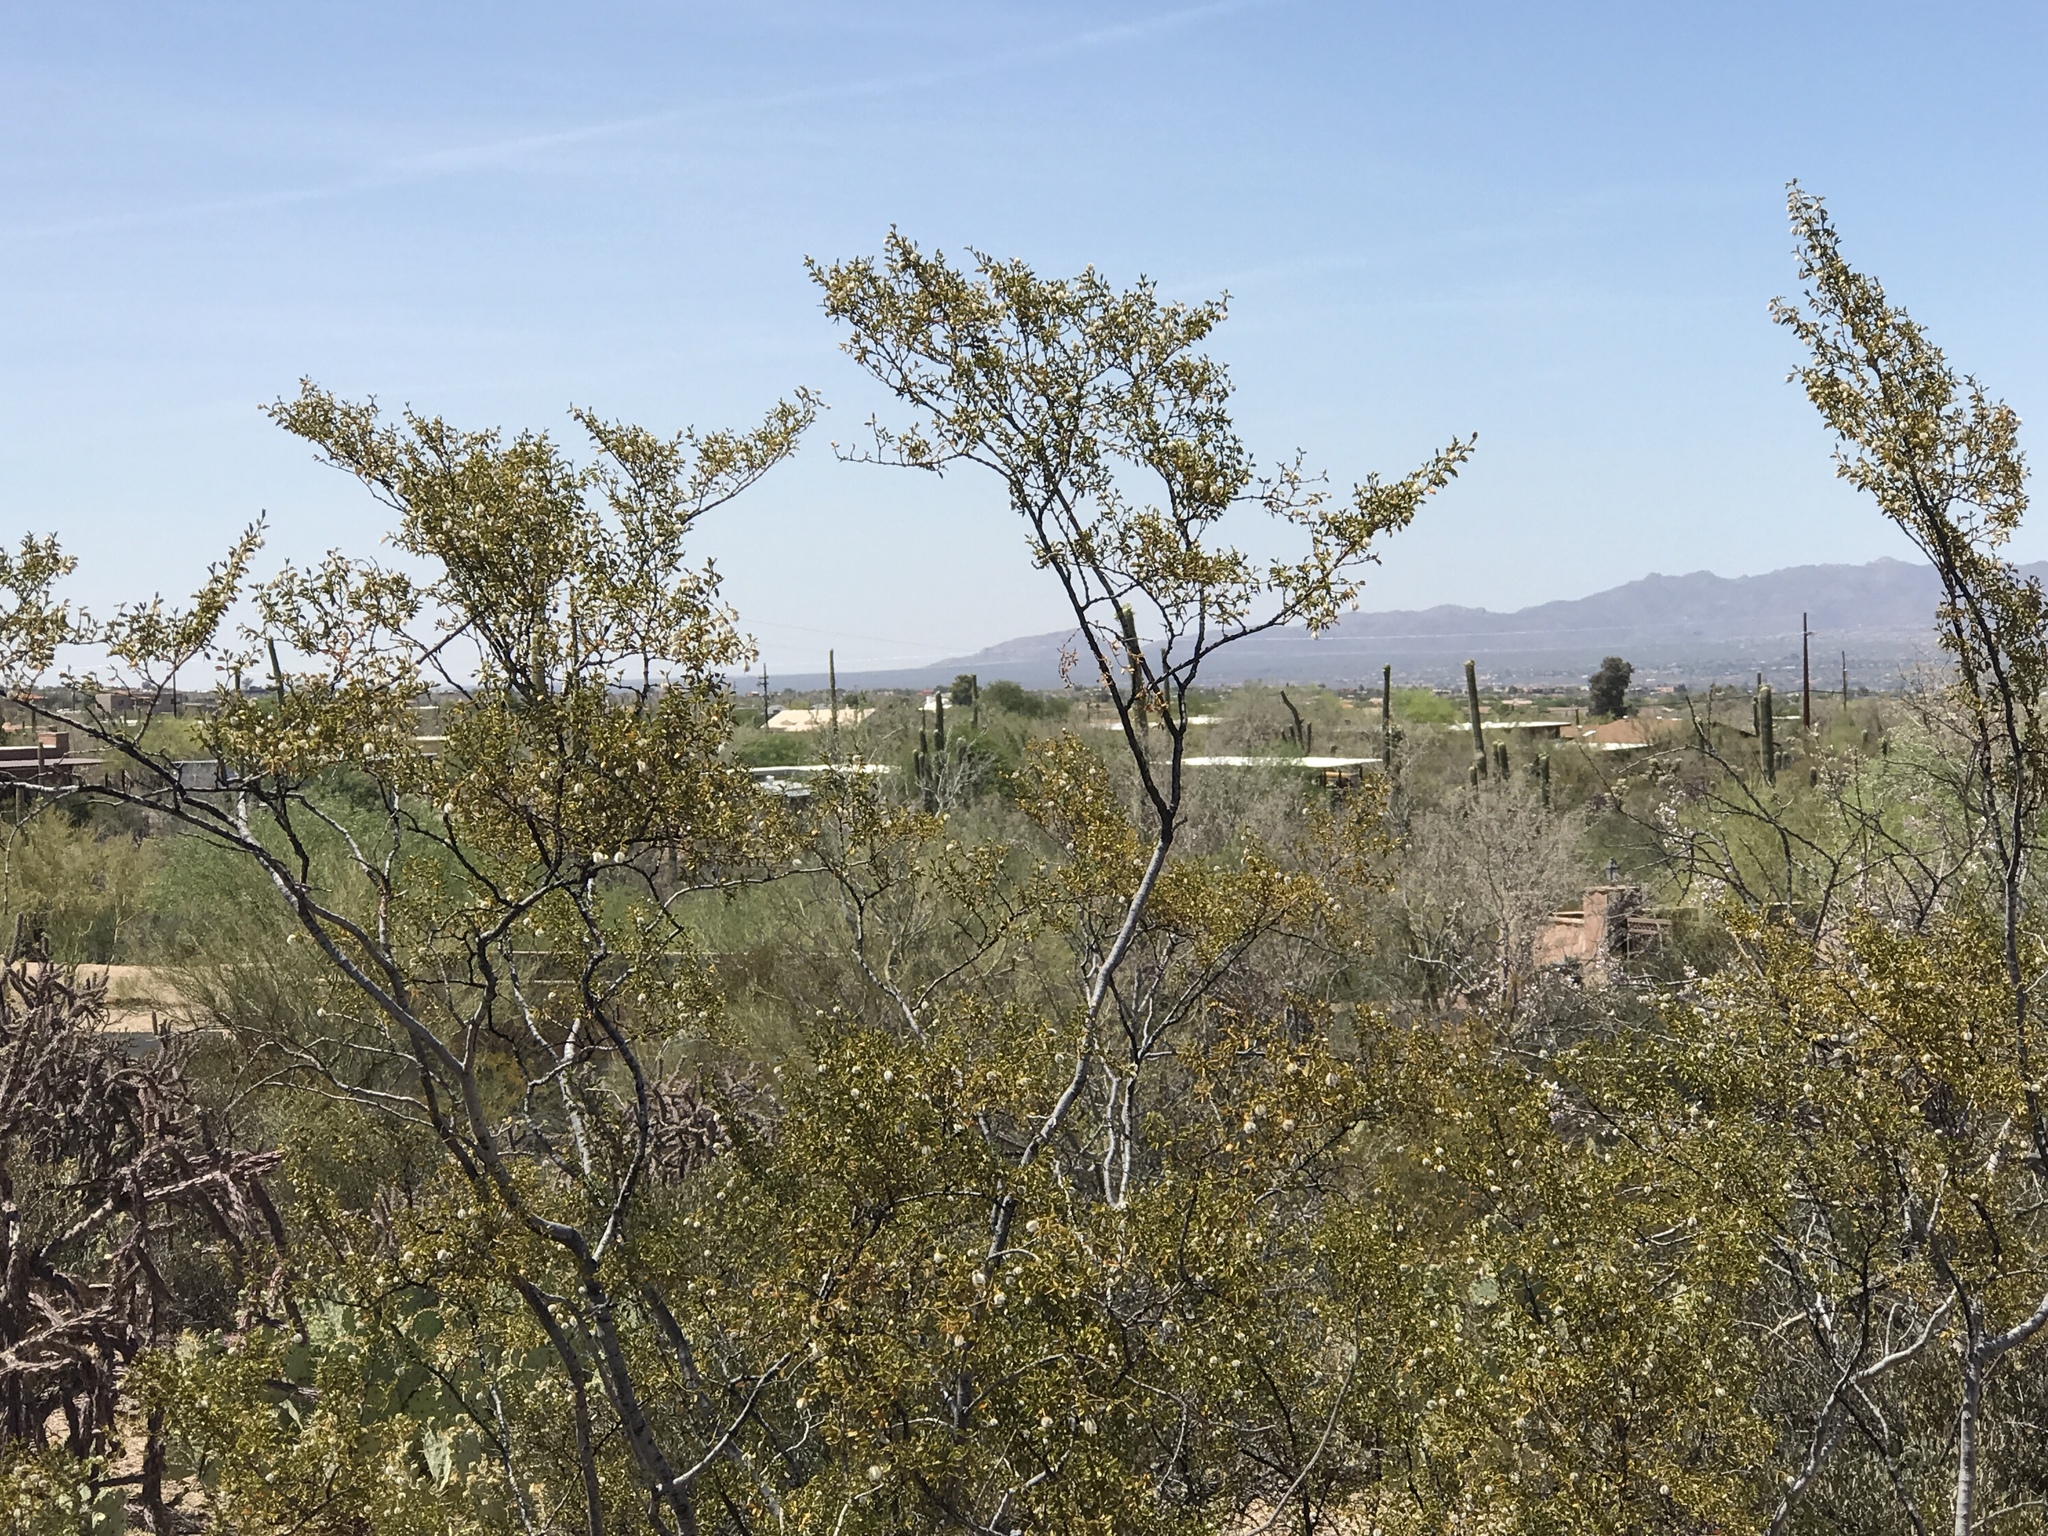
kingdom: Plantae
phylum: Tracheophyta
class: Magnoliopsida
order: Zygophyllales
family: Zygophyllaceae
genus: Larrea
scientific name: Larrea tridentata
